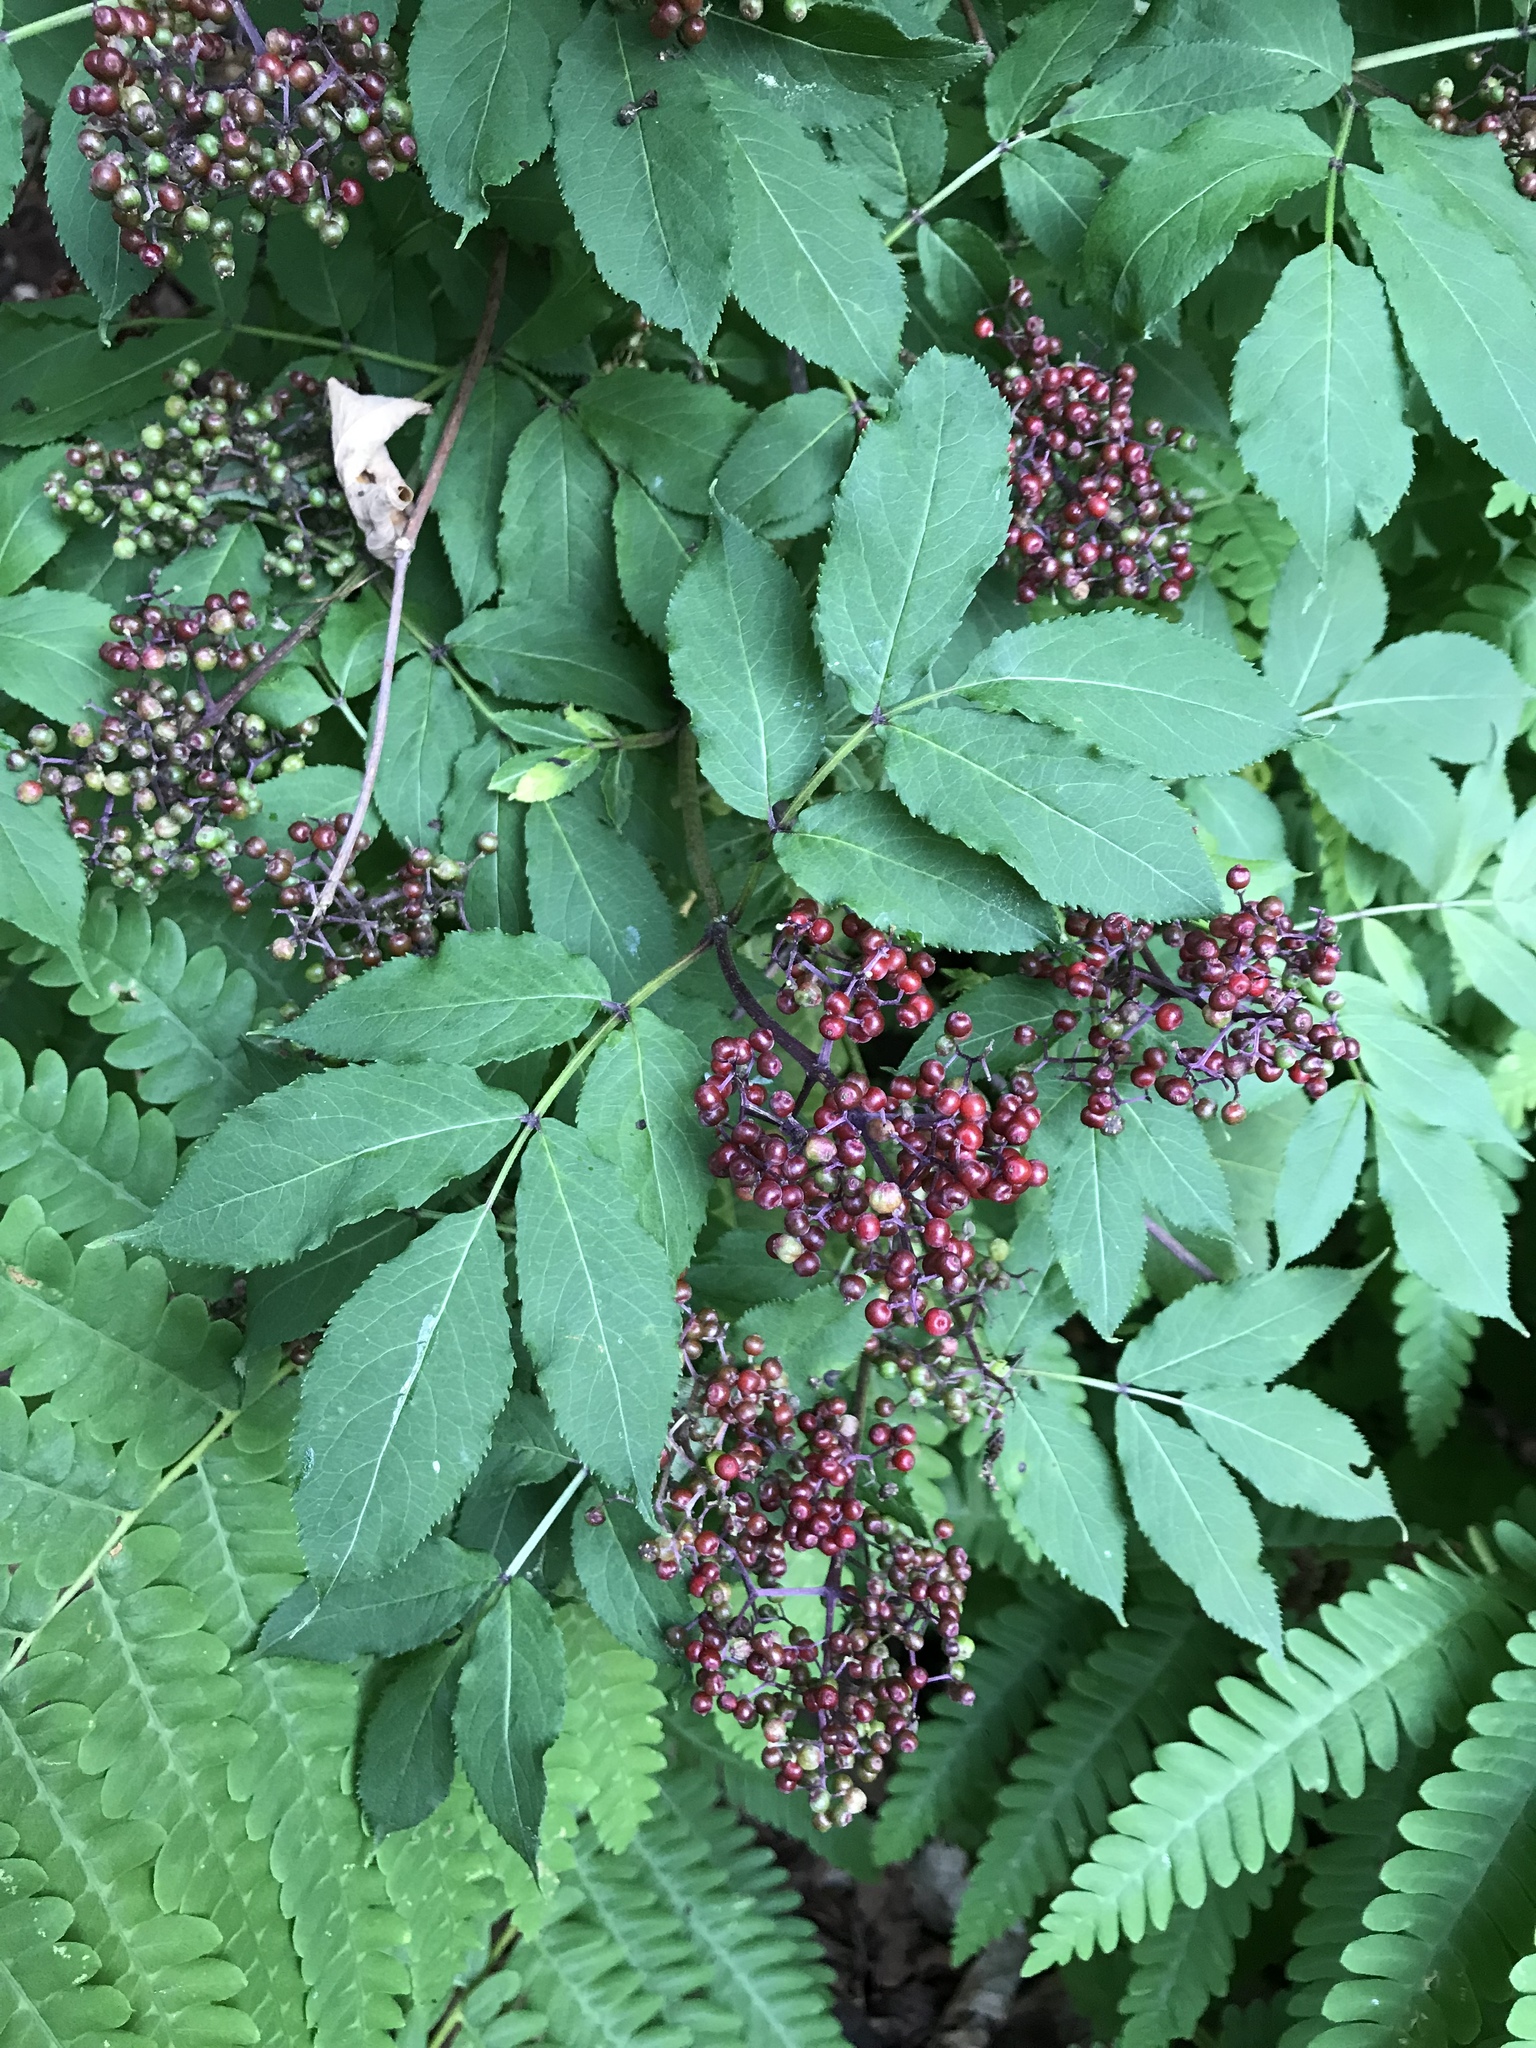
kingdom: Plantae
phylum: Tracheophyta
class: Magnoliopsida
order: Dipsacales
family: Viburnaceae
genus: Sambucus
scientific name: Sambucus racemosa
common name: Red-berried elder
